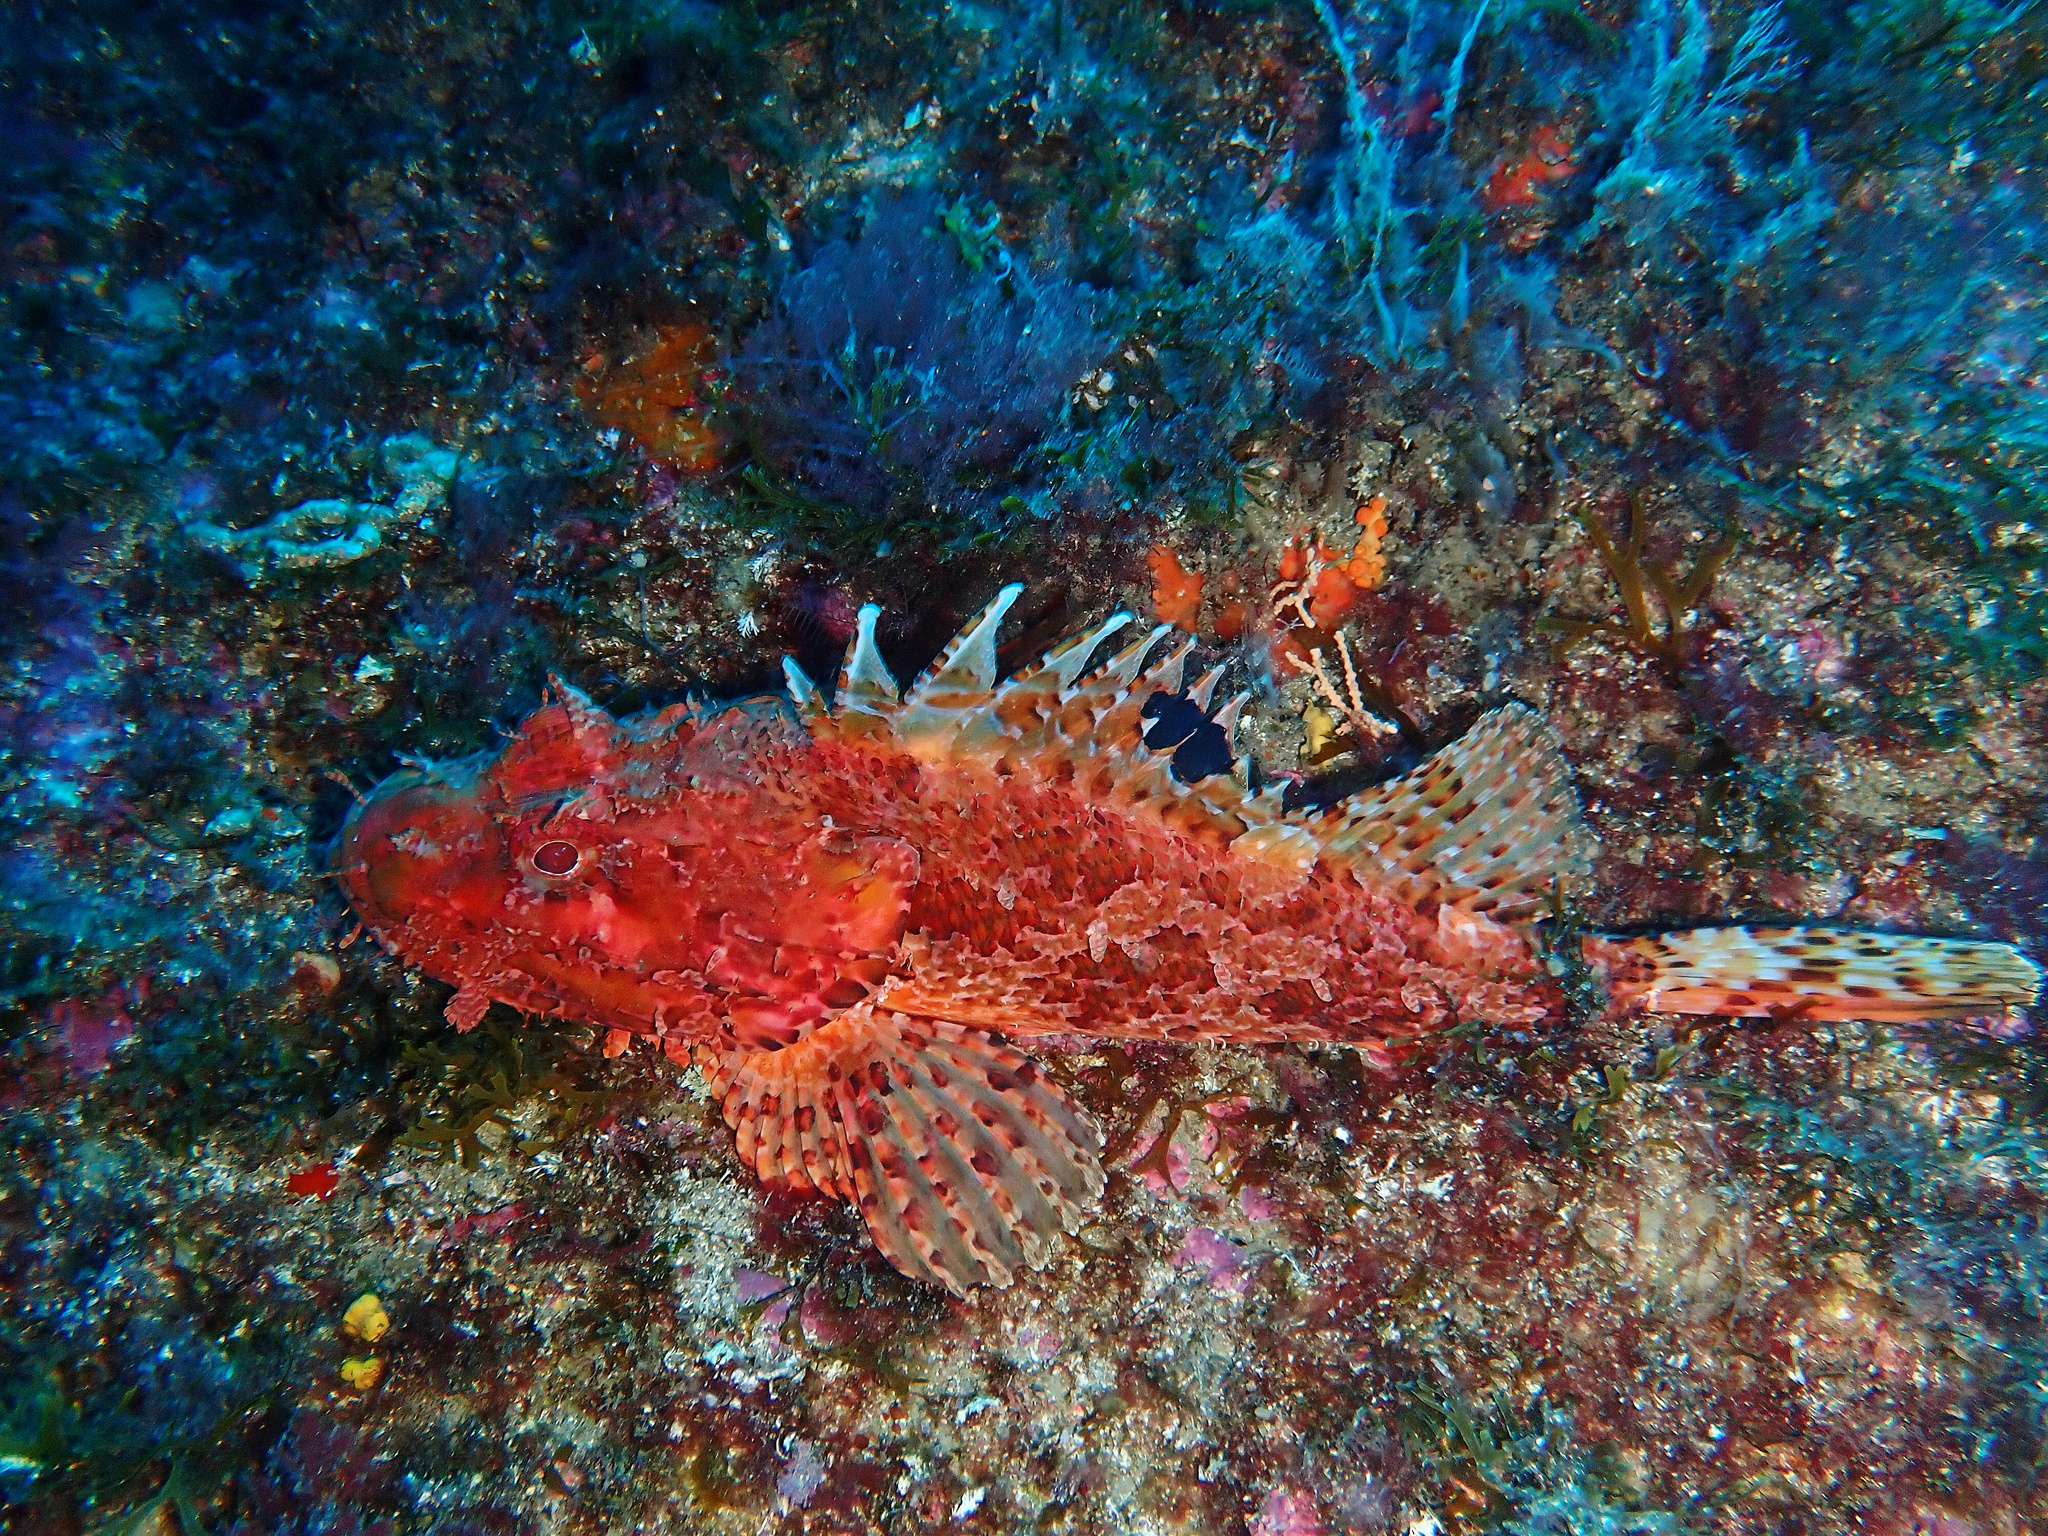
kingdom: Animalia
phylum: Chordata
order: Scorpaeniformes
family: Scorpaenidae
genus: Scorpaena
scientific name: Scorpaena scrofa
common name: Red scorpionfish
